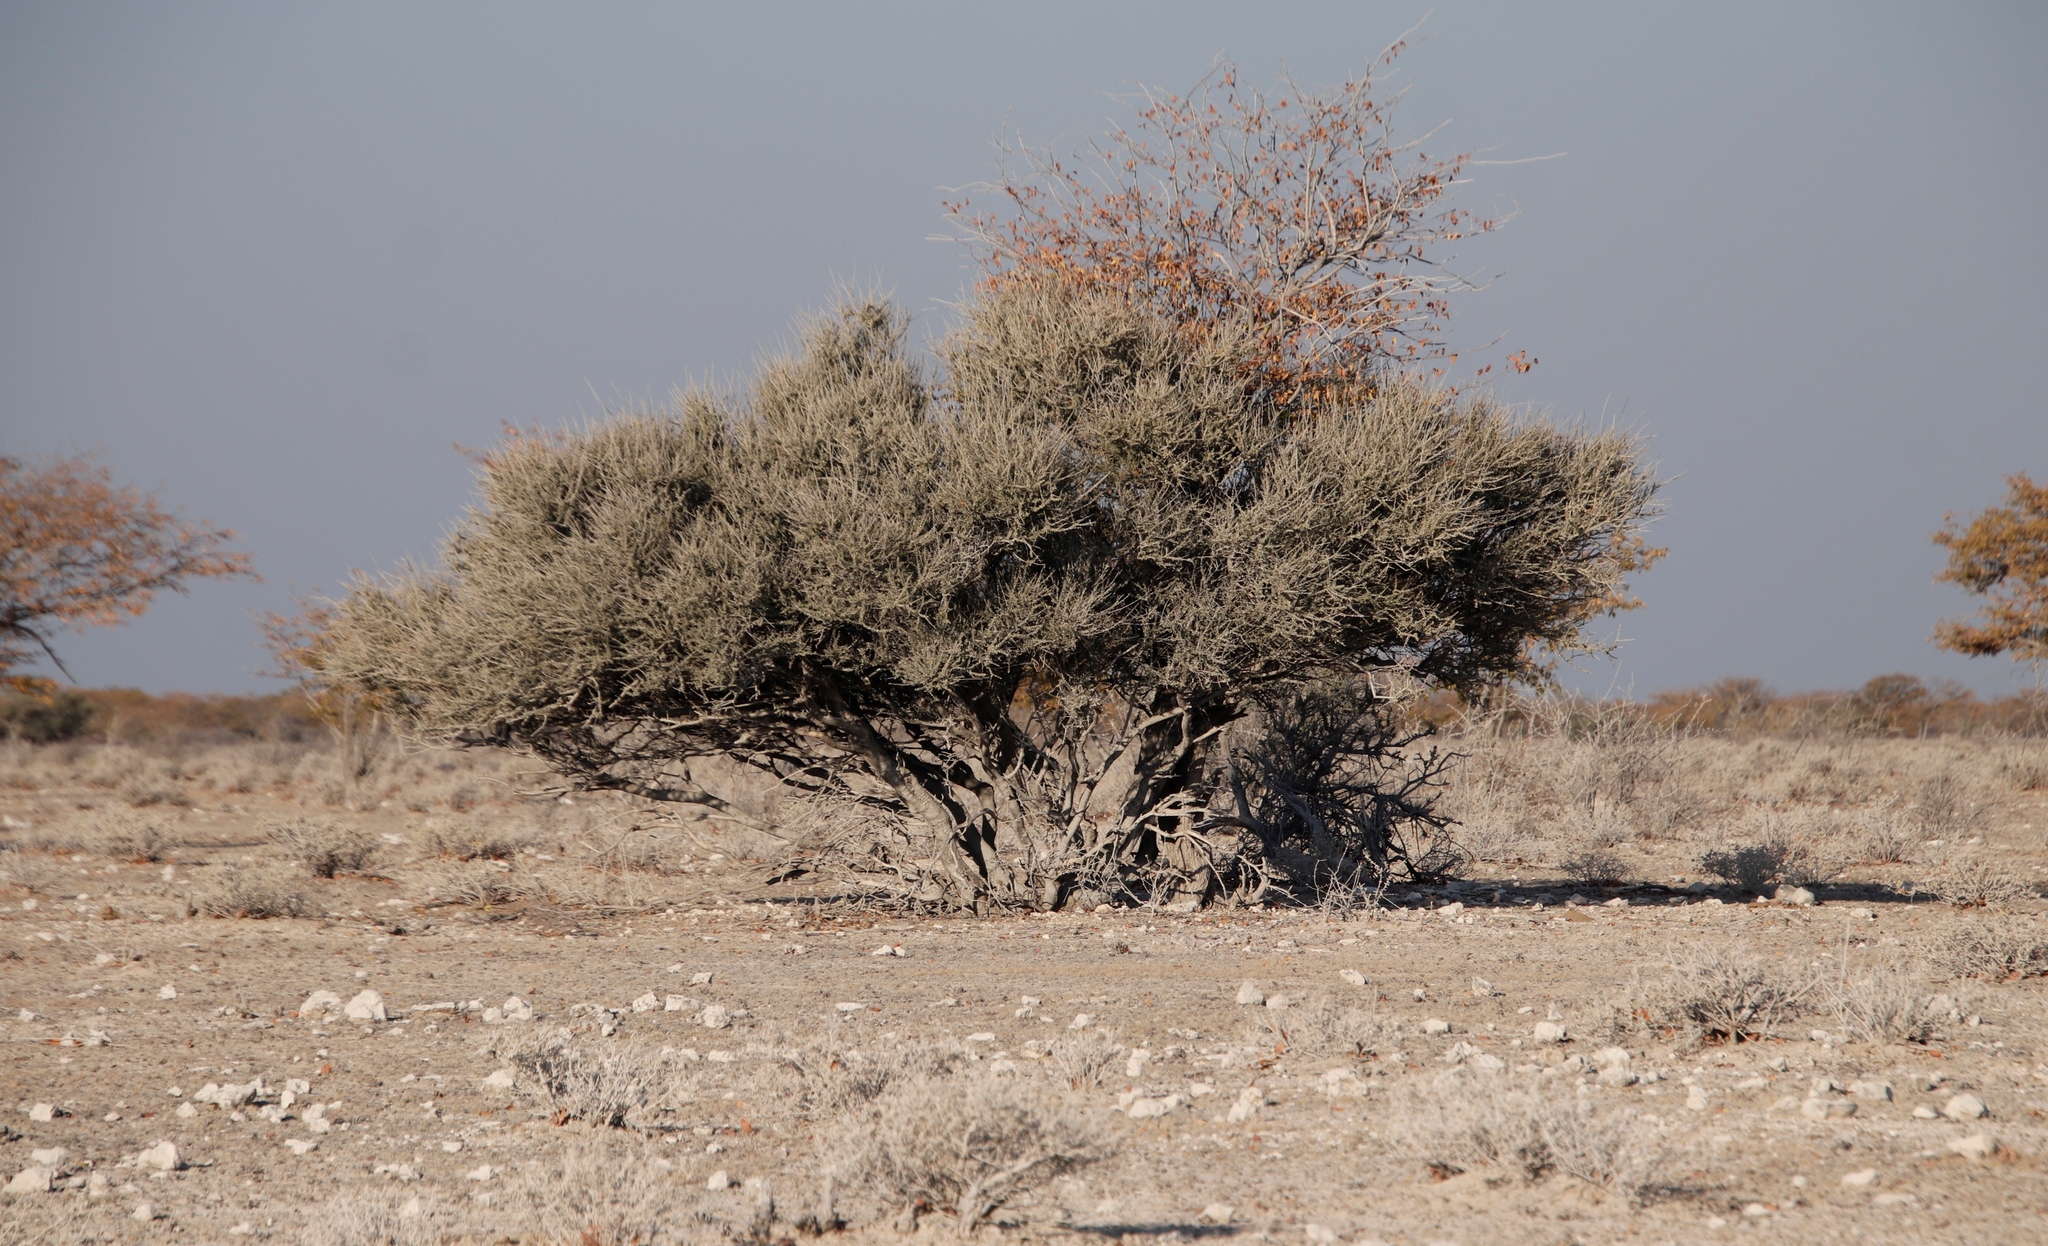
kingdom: Plantae
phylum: Tracheophyta
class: Magnoliopsida
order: Brassicales
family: Capparaceae
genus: Boscia
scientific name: Boscia foetida
